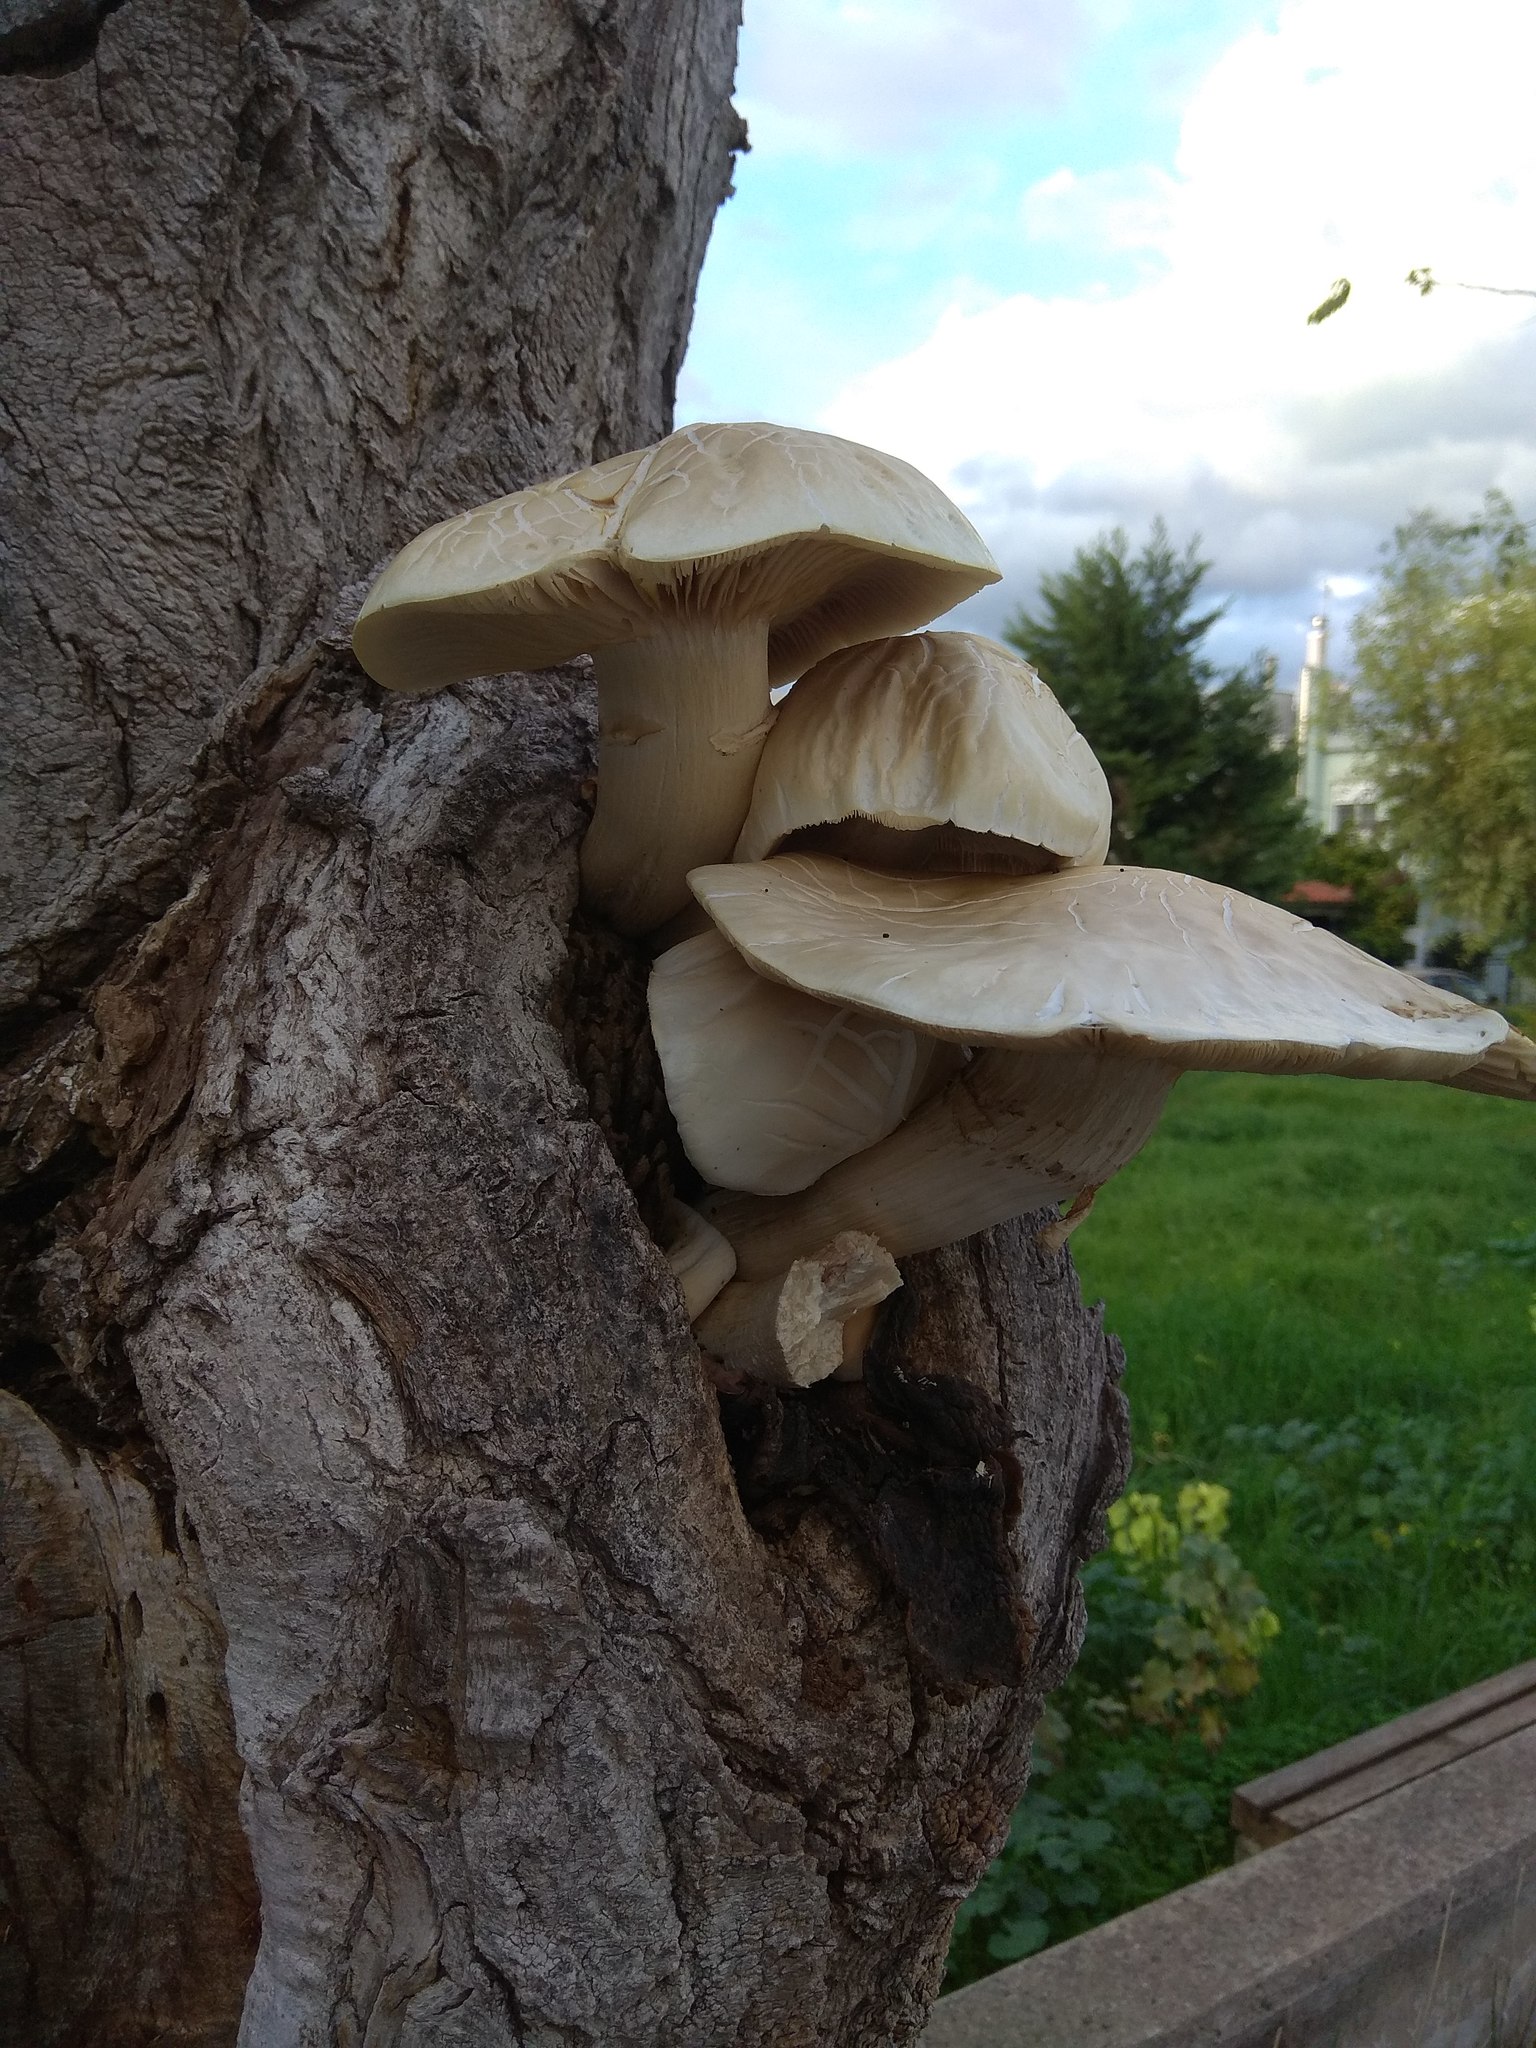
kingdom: Fungi
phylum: Basidiomycota
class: Agaricomycetes
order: Agaricales
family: Tubariaceae
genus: Cyclocybe
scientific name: Cyclocybe cylindracea
